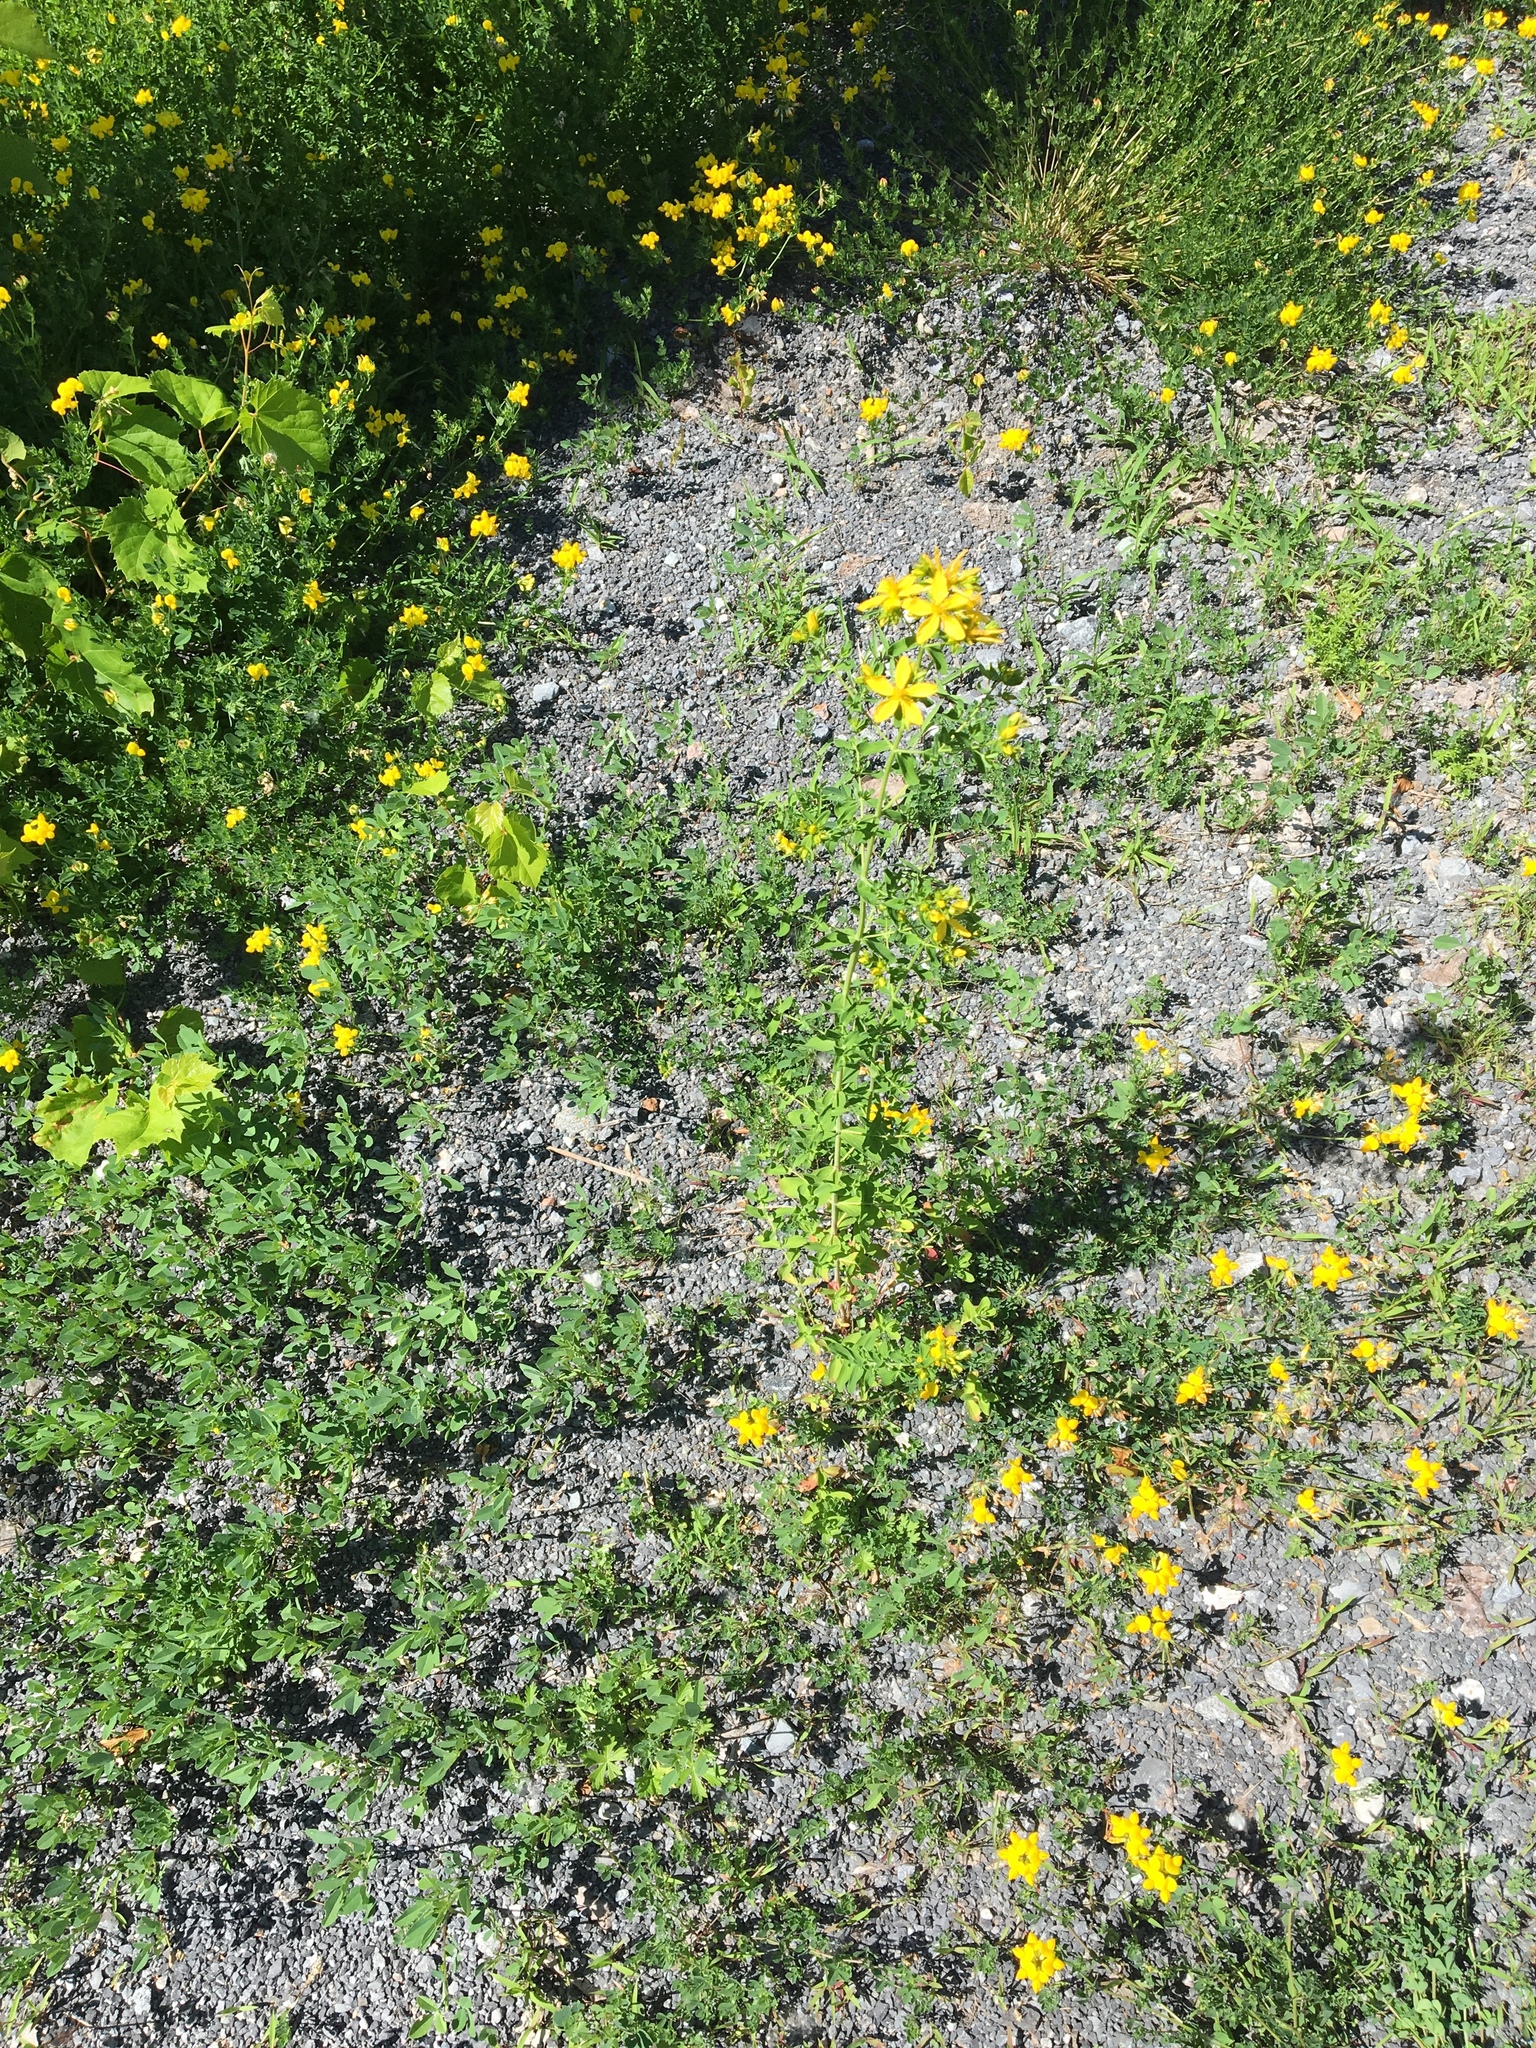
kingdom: Plantae
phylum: Tracheophyta
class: Magnoliopsida
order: Malpighiales
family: Hypericaceae
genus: Hypericum
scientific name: Hypericum perforatum
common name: Common st. johnswort
